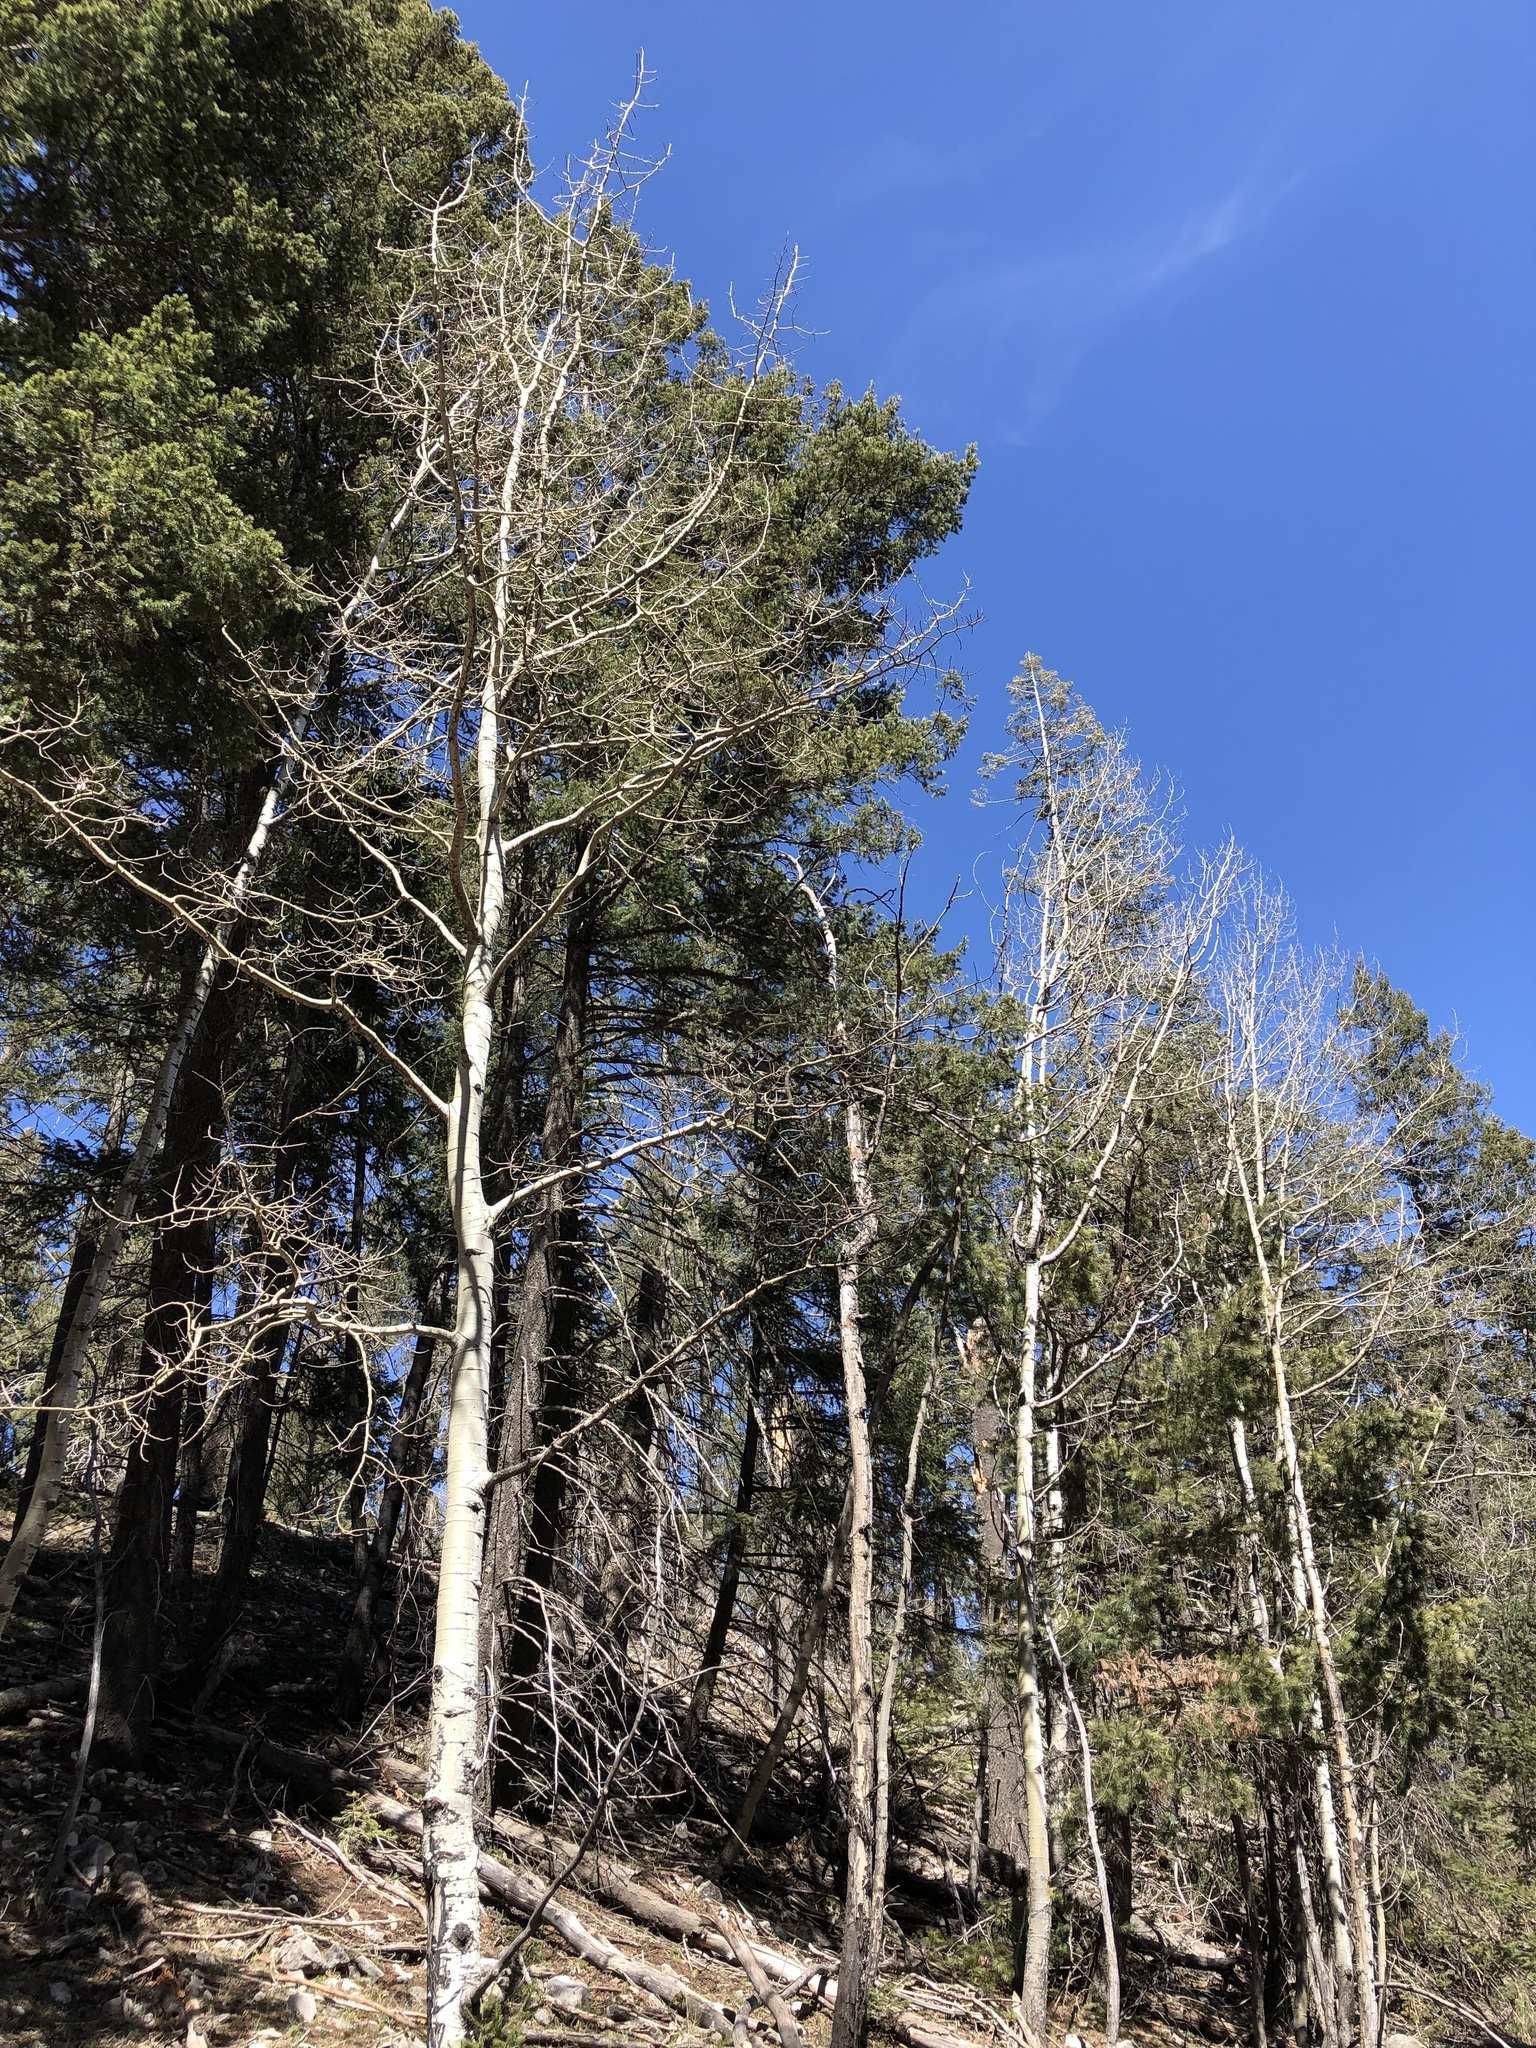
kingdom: Plantae
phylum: Tracheophyta
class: Magnoliopsida
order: Malpighiales
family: Salicaceae
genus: Populus
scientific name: Populus tremuloides
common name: Quaking aspen
